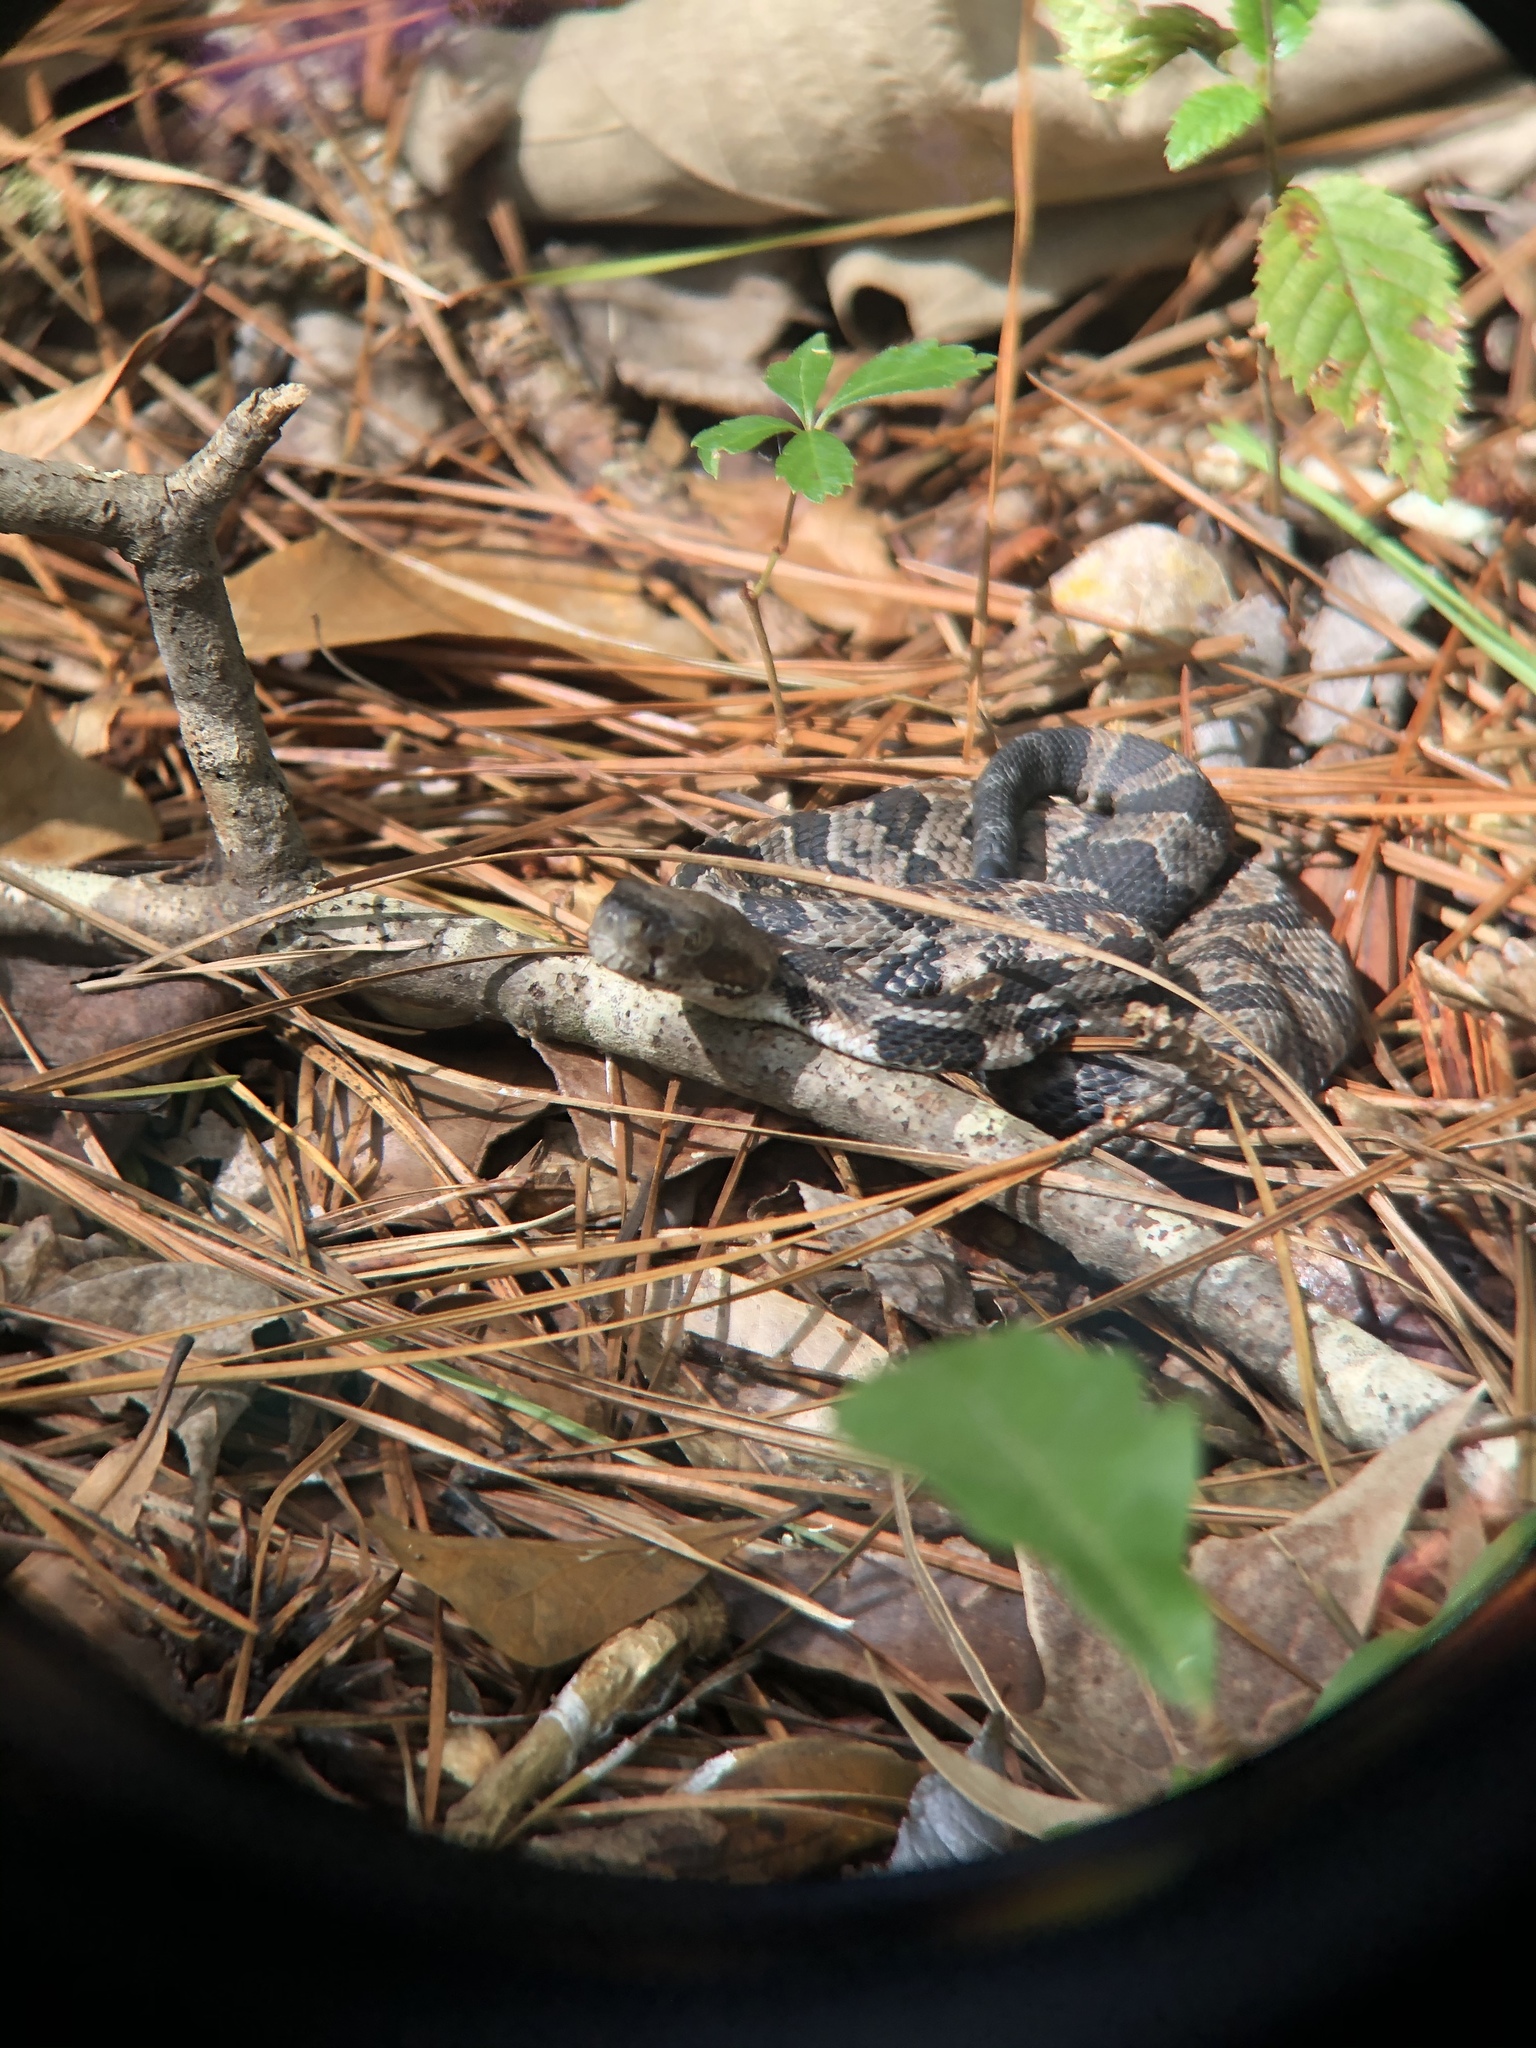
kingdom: Animalia
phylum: Chordata
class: Squamata
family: Viperidae
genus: Crotalus
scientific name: Crotalus horridus
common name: Timber rattlesnake
